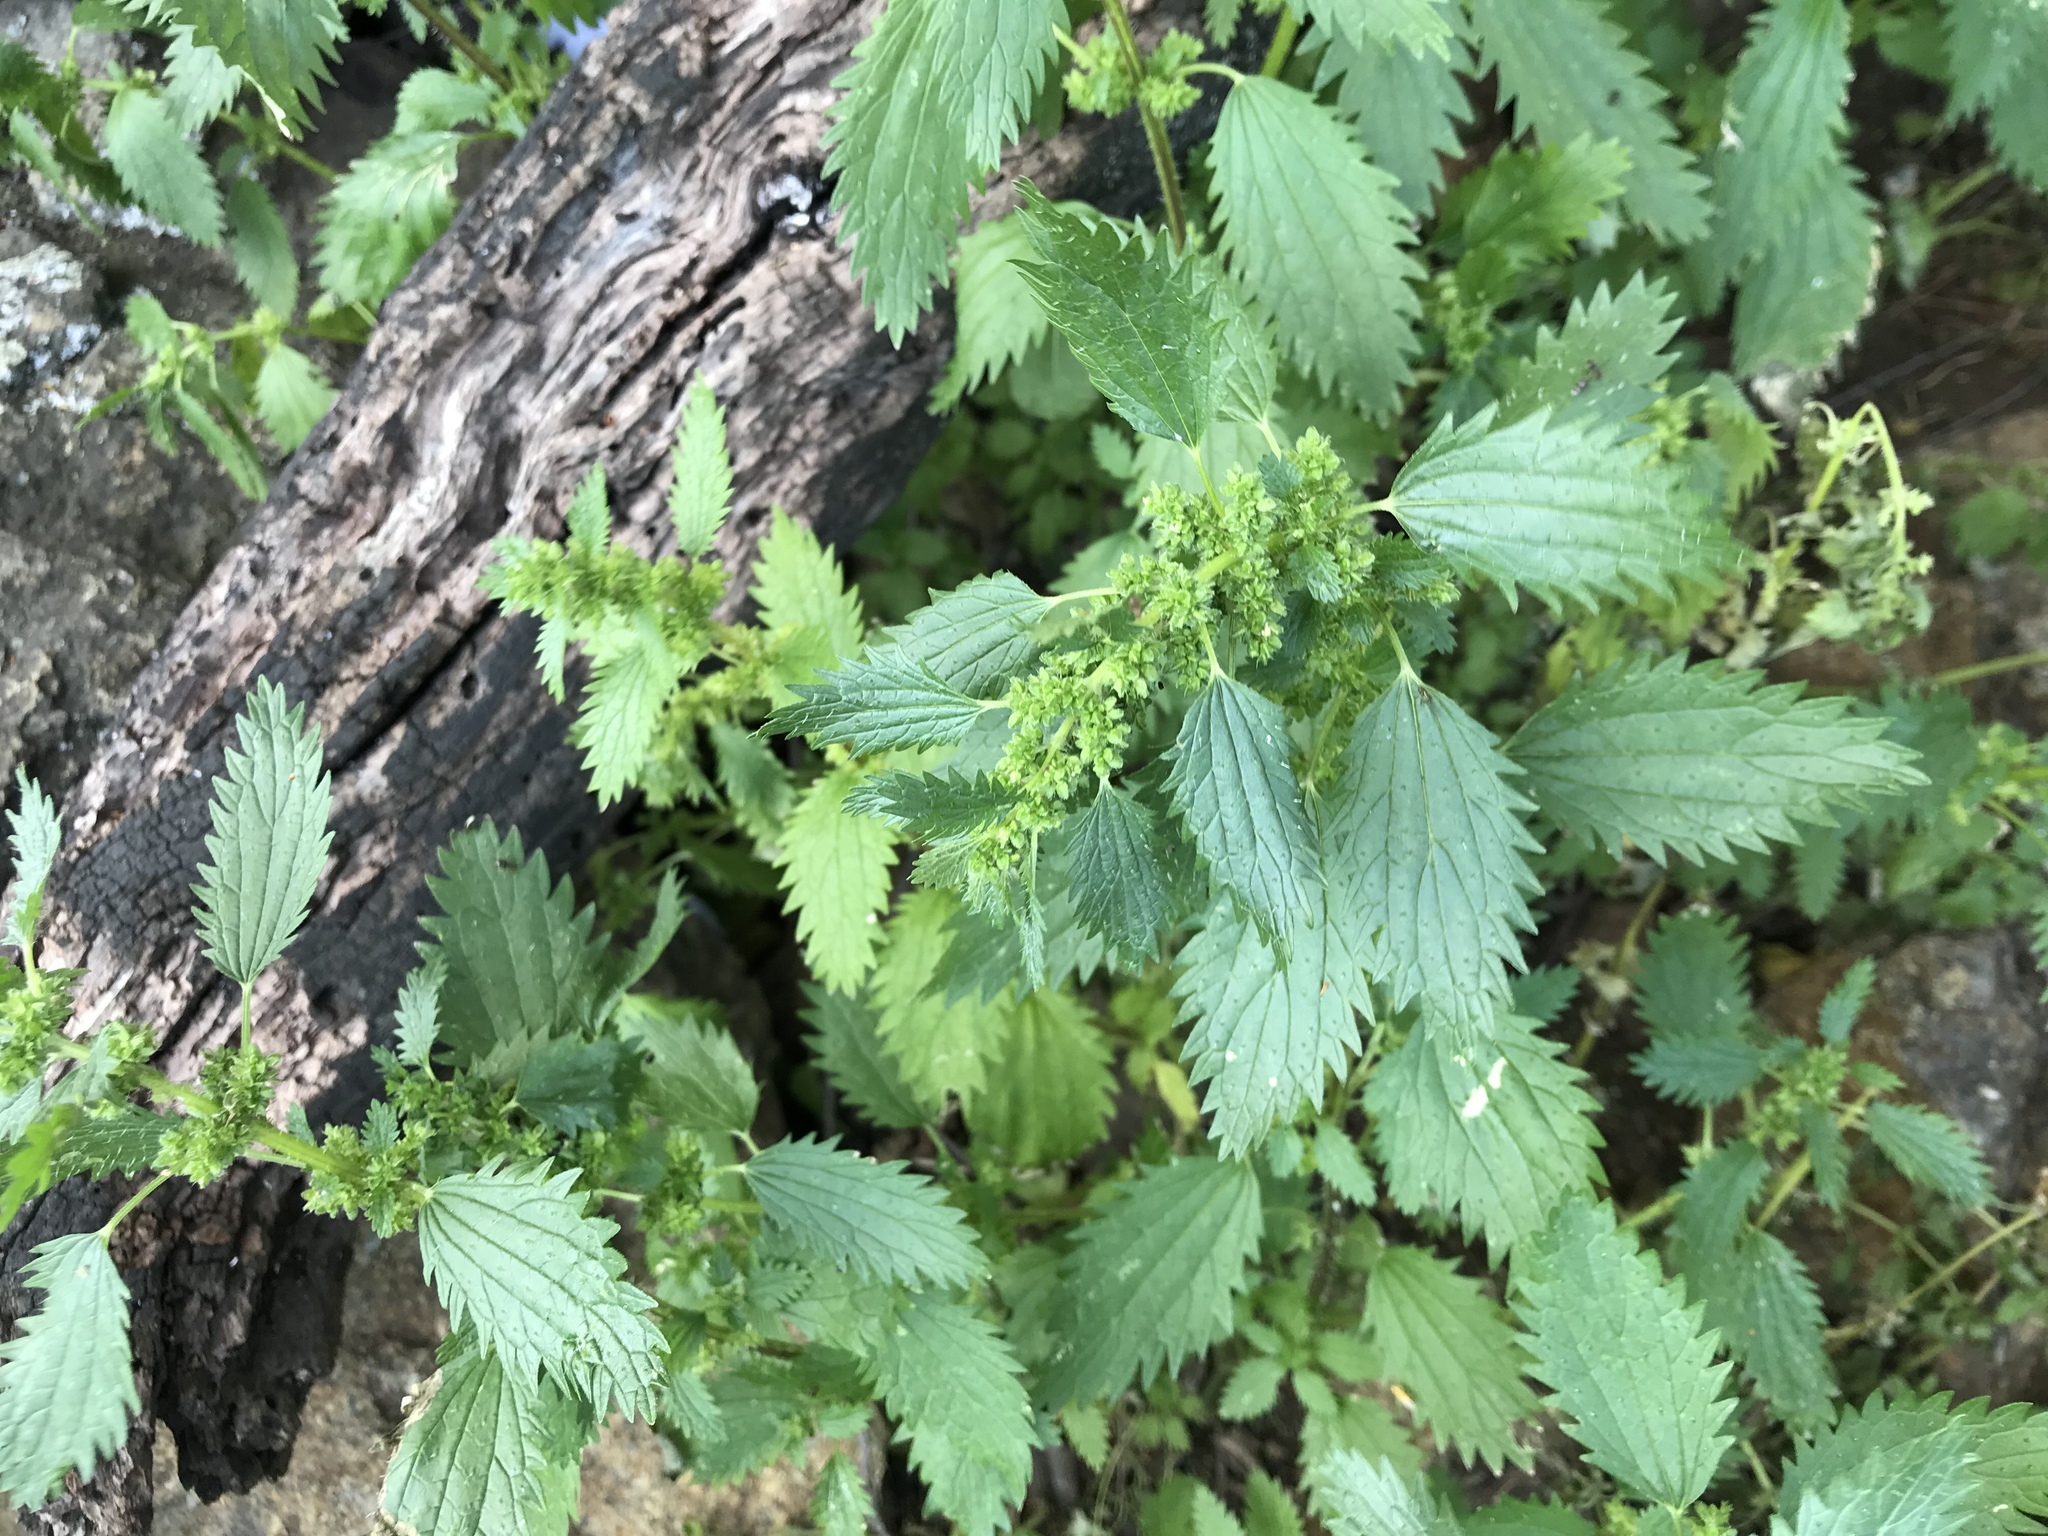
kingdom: Plantae
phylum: Tracheophyta
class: Magnoliopsida
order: Rosales
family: Urticaceae
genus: Urtica
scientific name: Urtica urens
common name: Dwarf nettle
